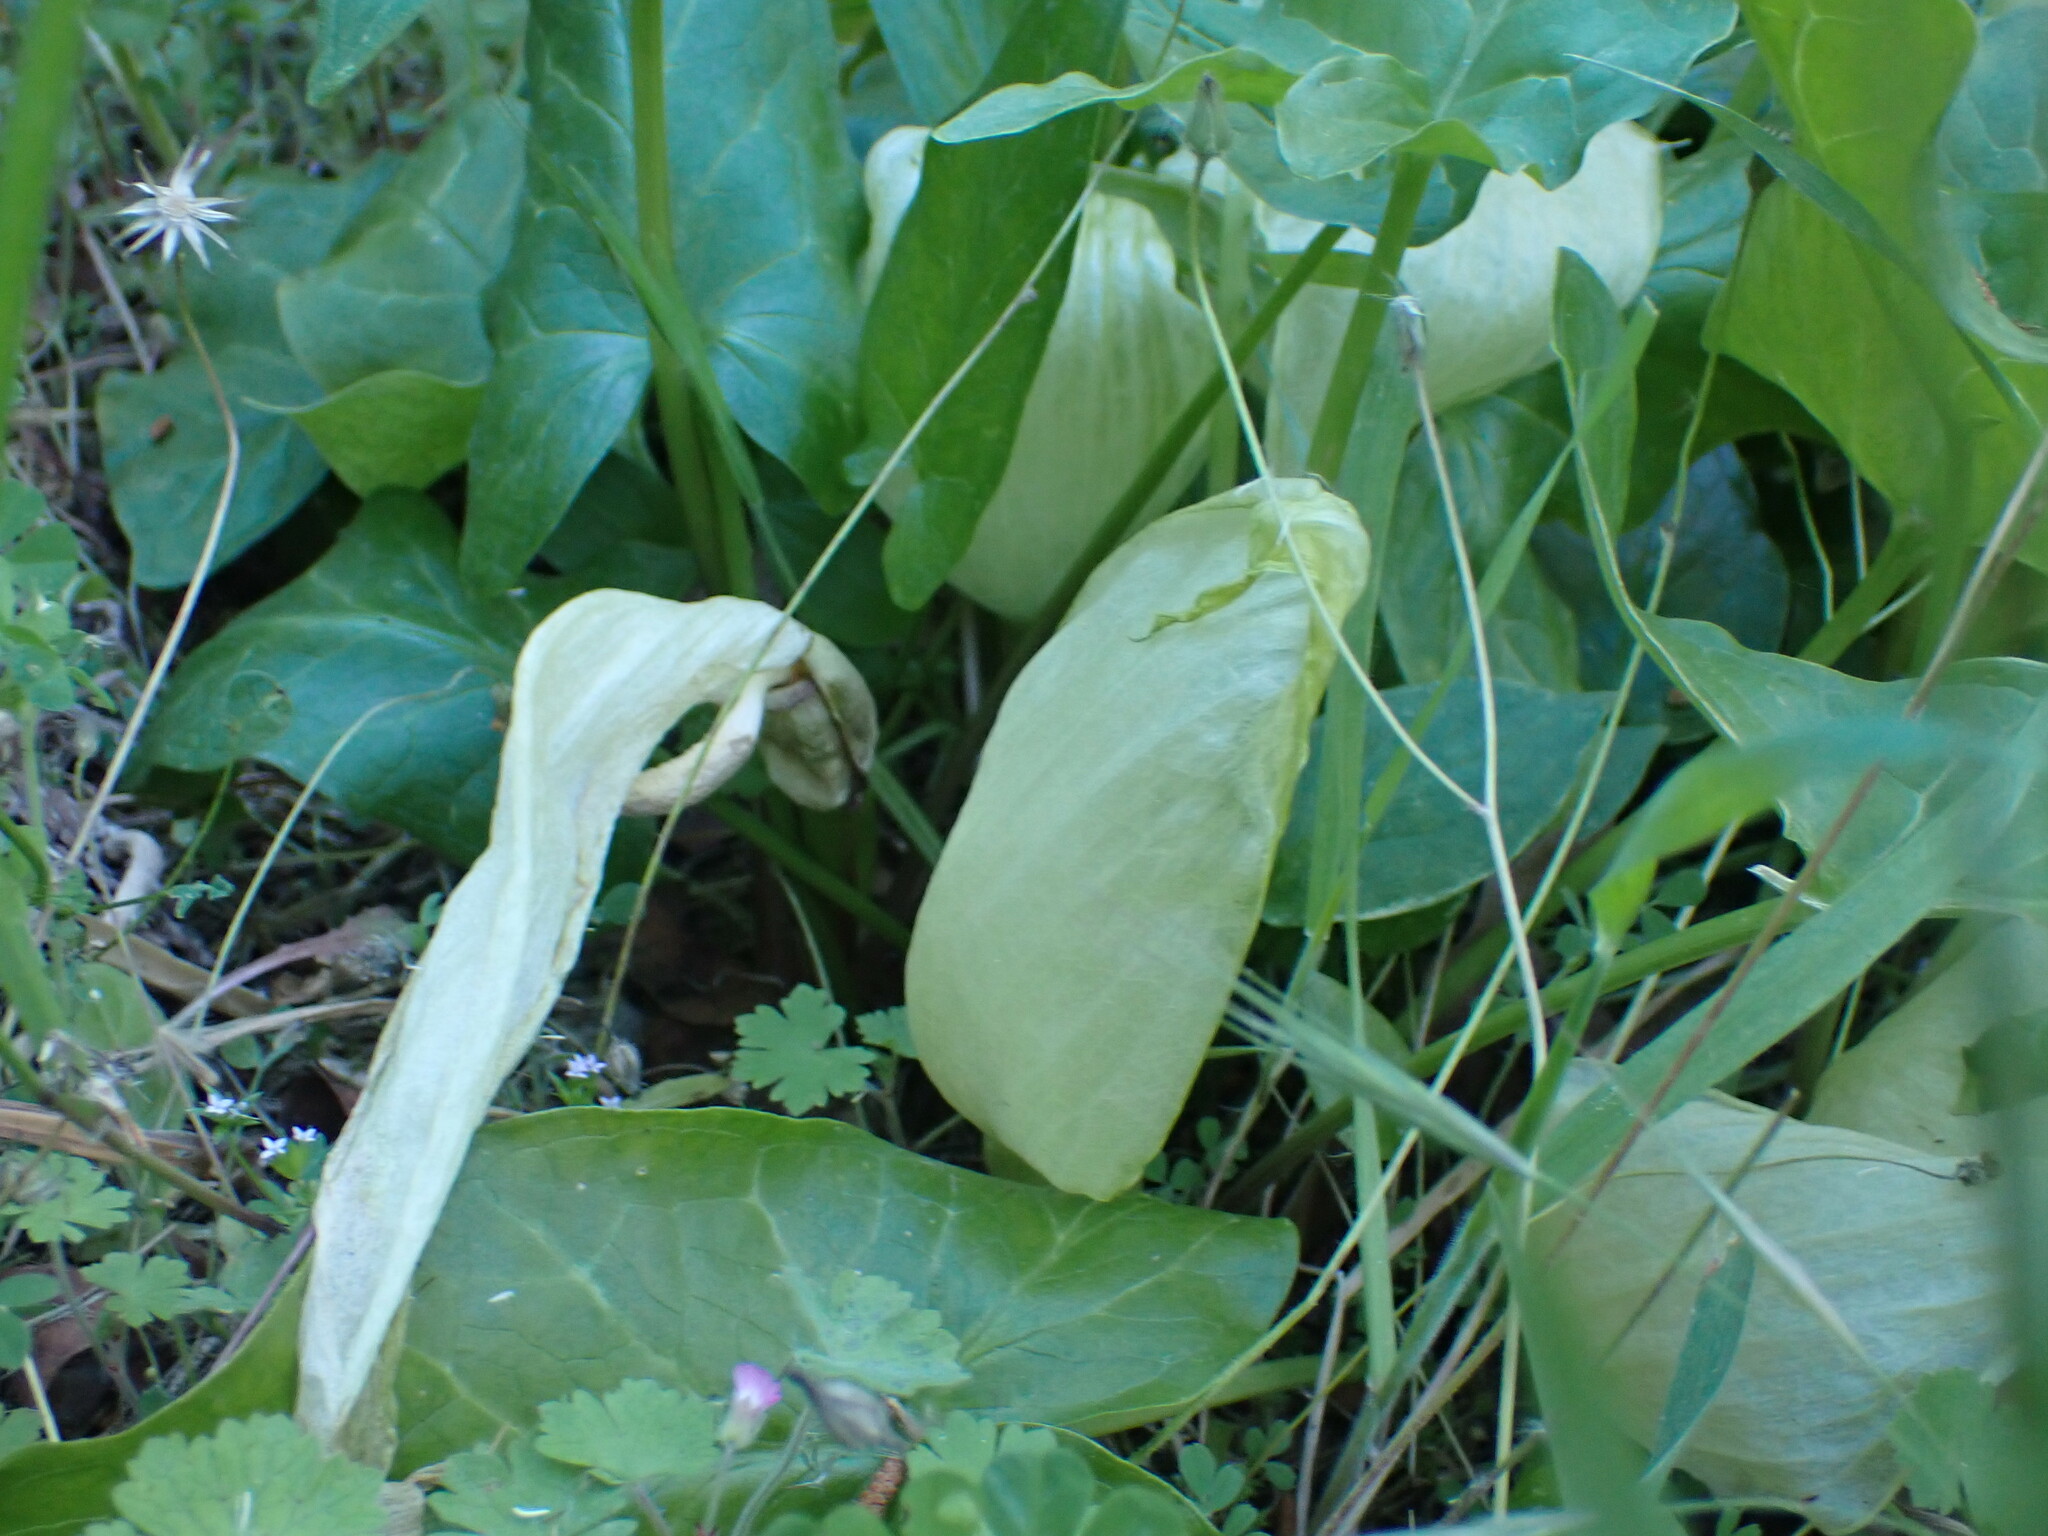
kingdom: Plantae
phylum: Tracheophyta
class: Liliopsida
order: Alismatales
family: Araceae
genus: Arum
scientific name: Arum italicum
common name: Italian lords-and-ladies
